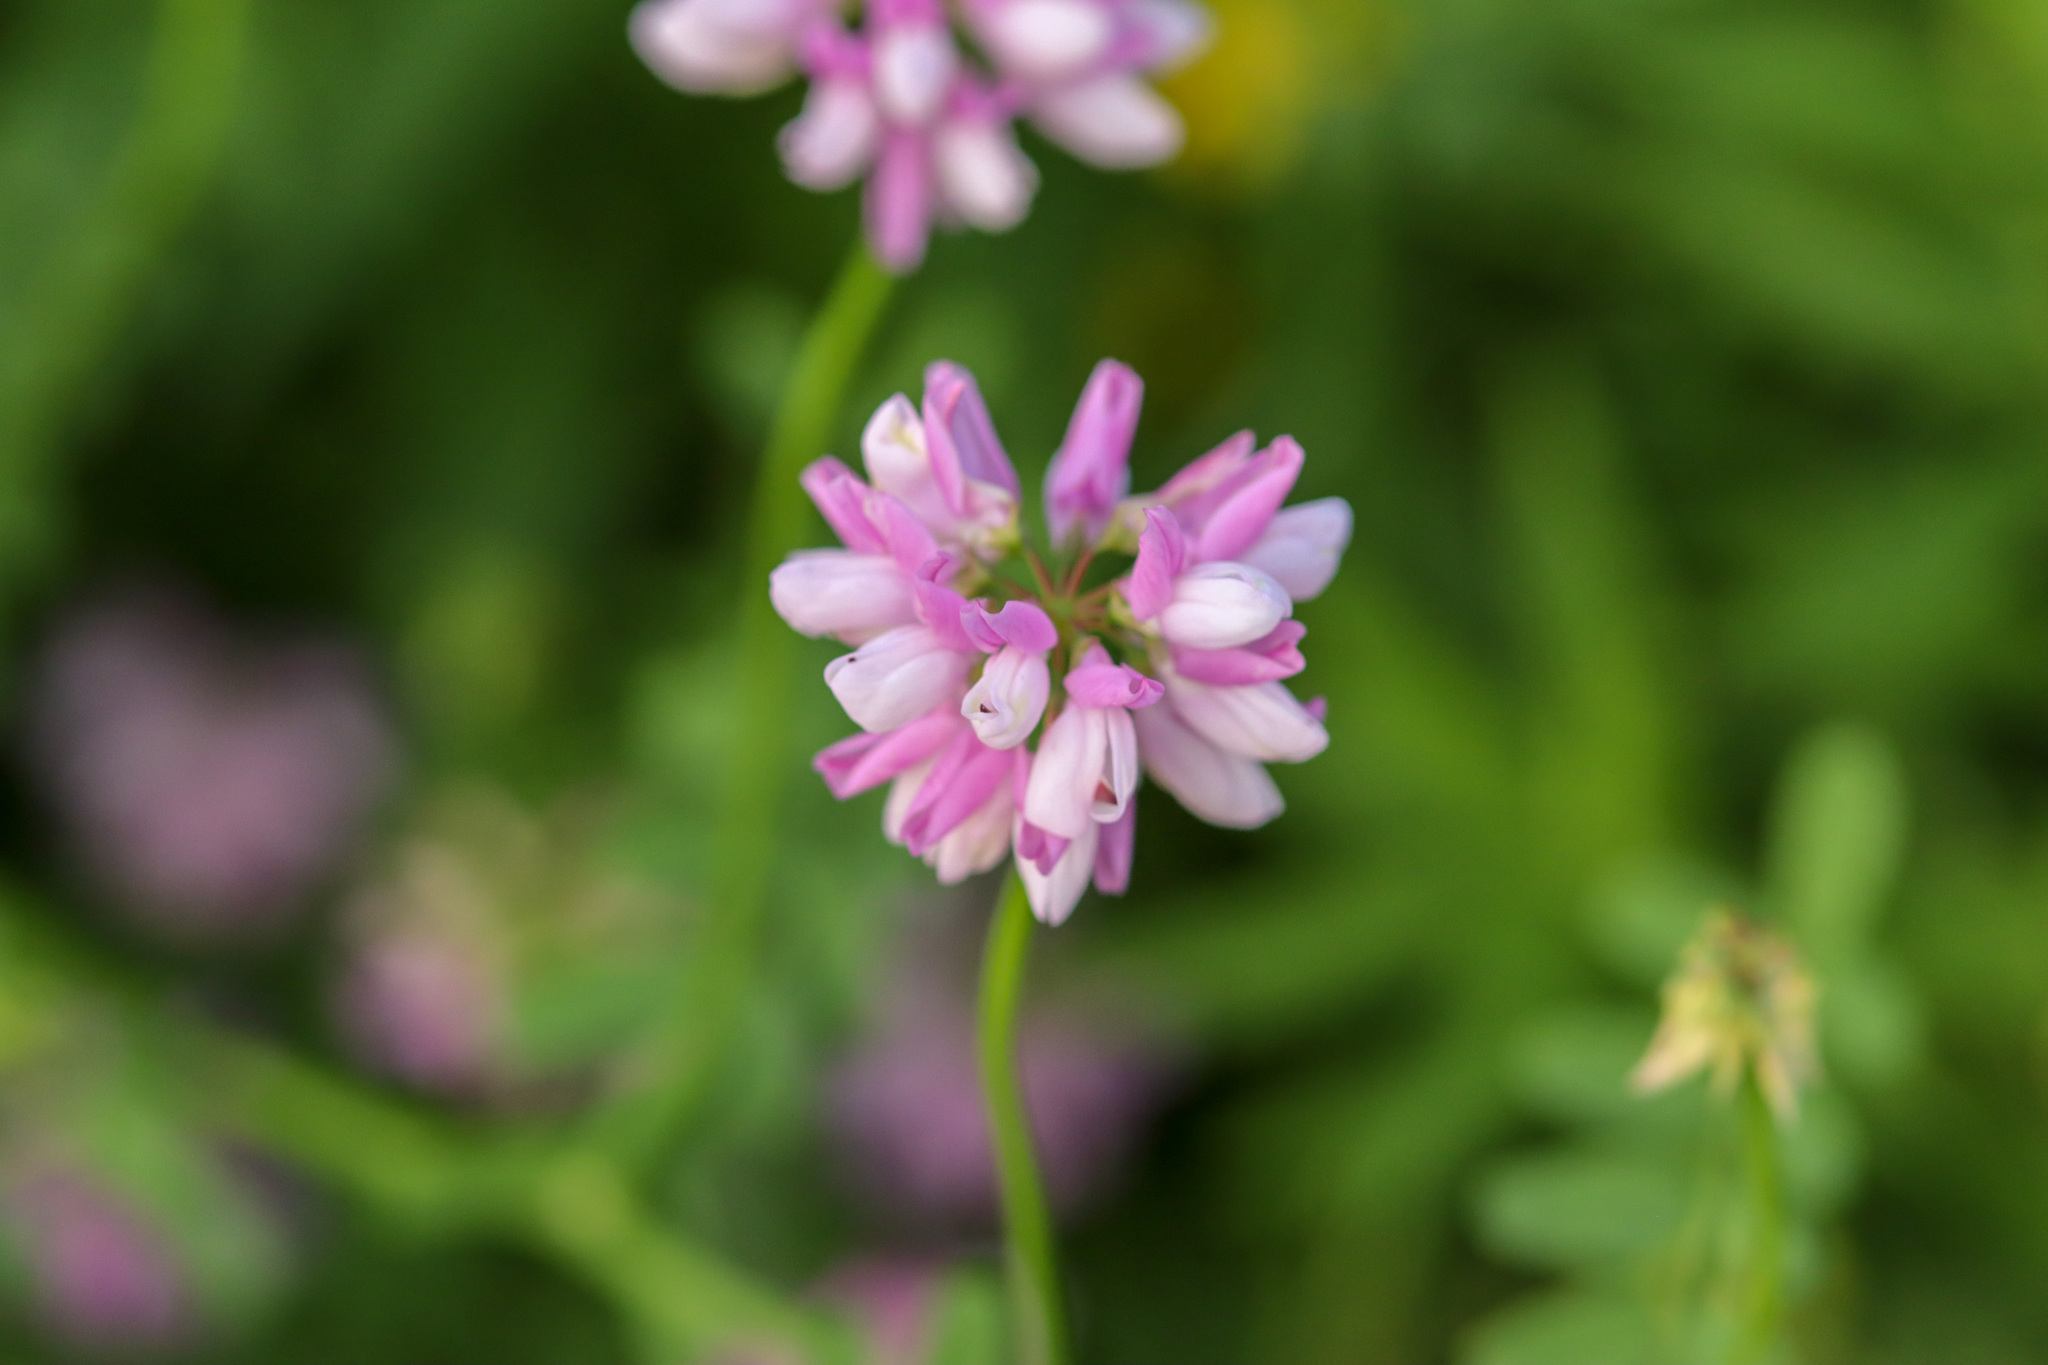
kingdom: Plantae
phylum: Tracheophyta
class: Magnoliopsida
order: Fabales
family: Fabaceae
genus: Coronilla
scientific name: Coronilla varia
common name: Crownvetch
